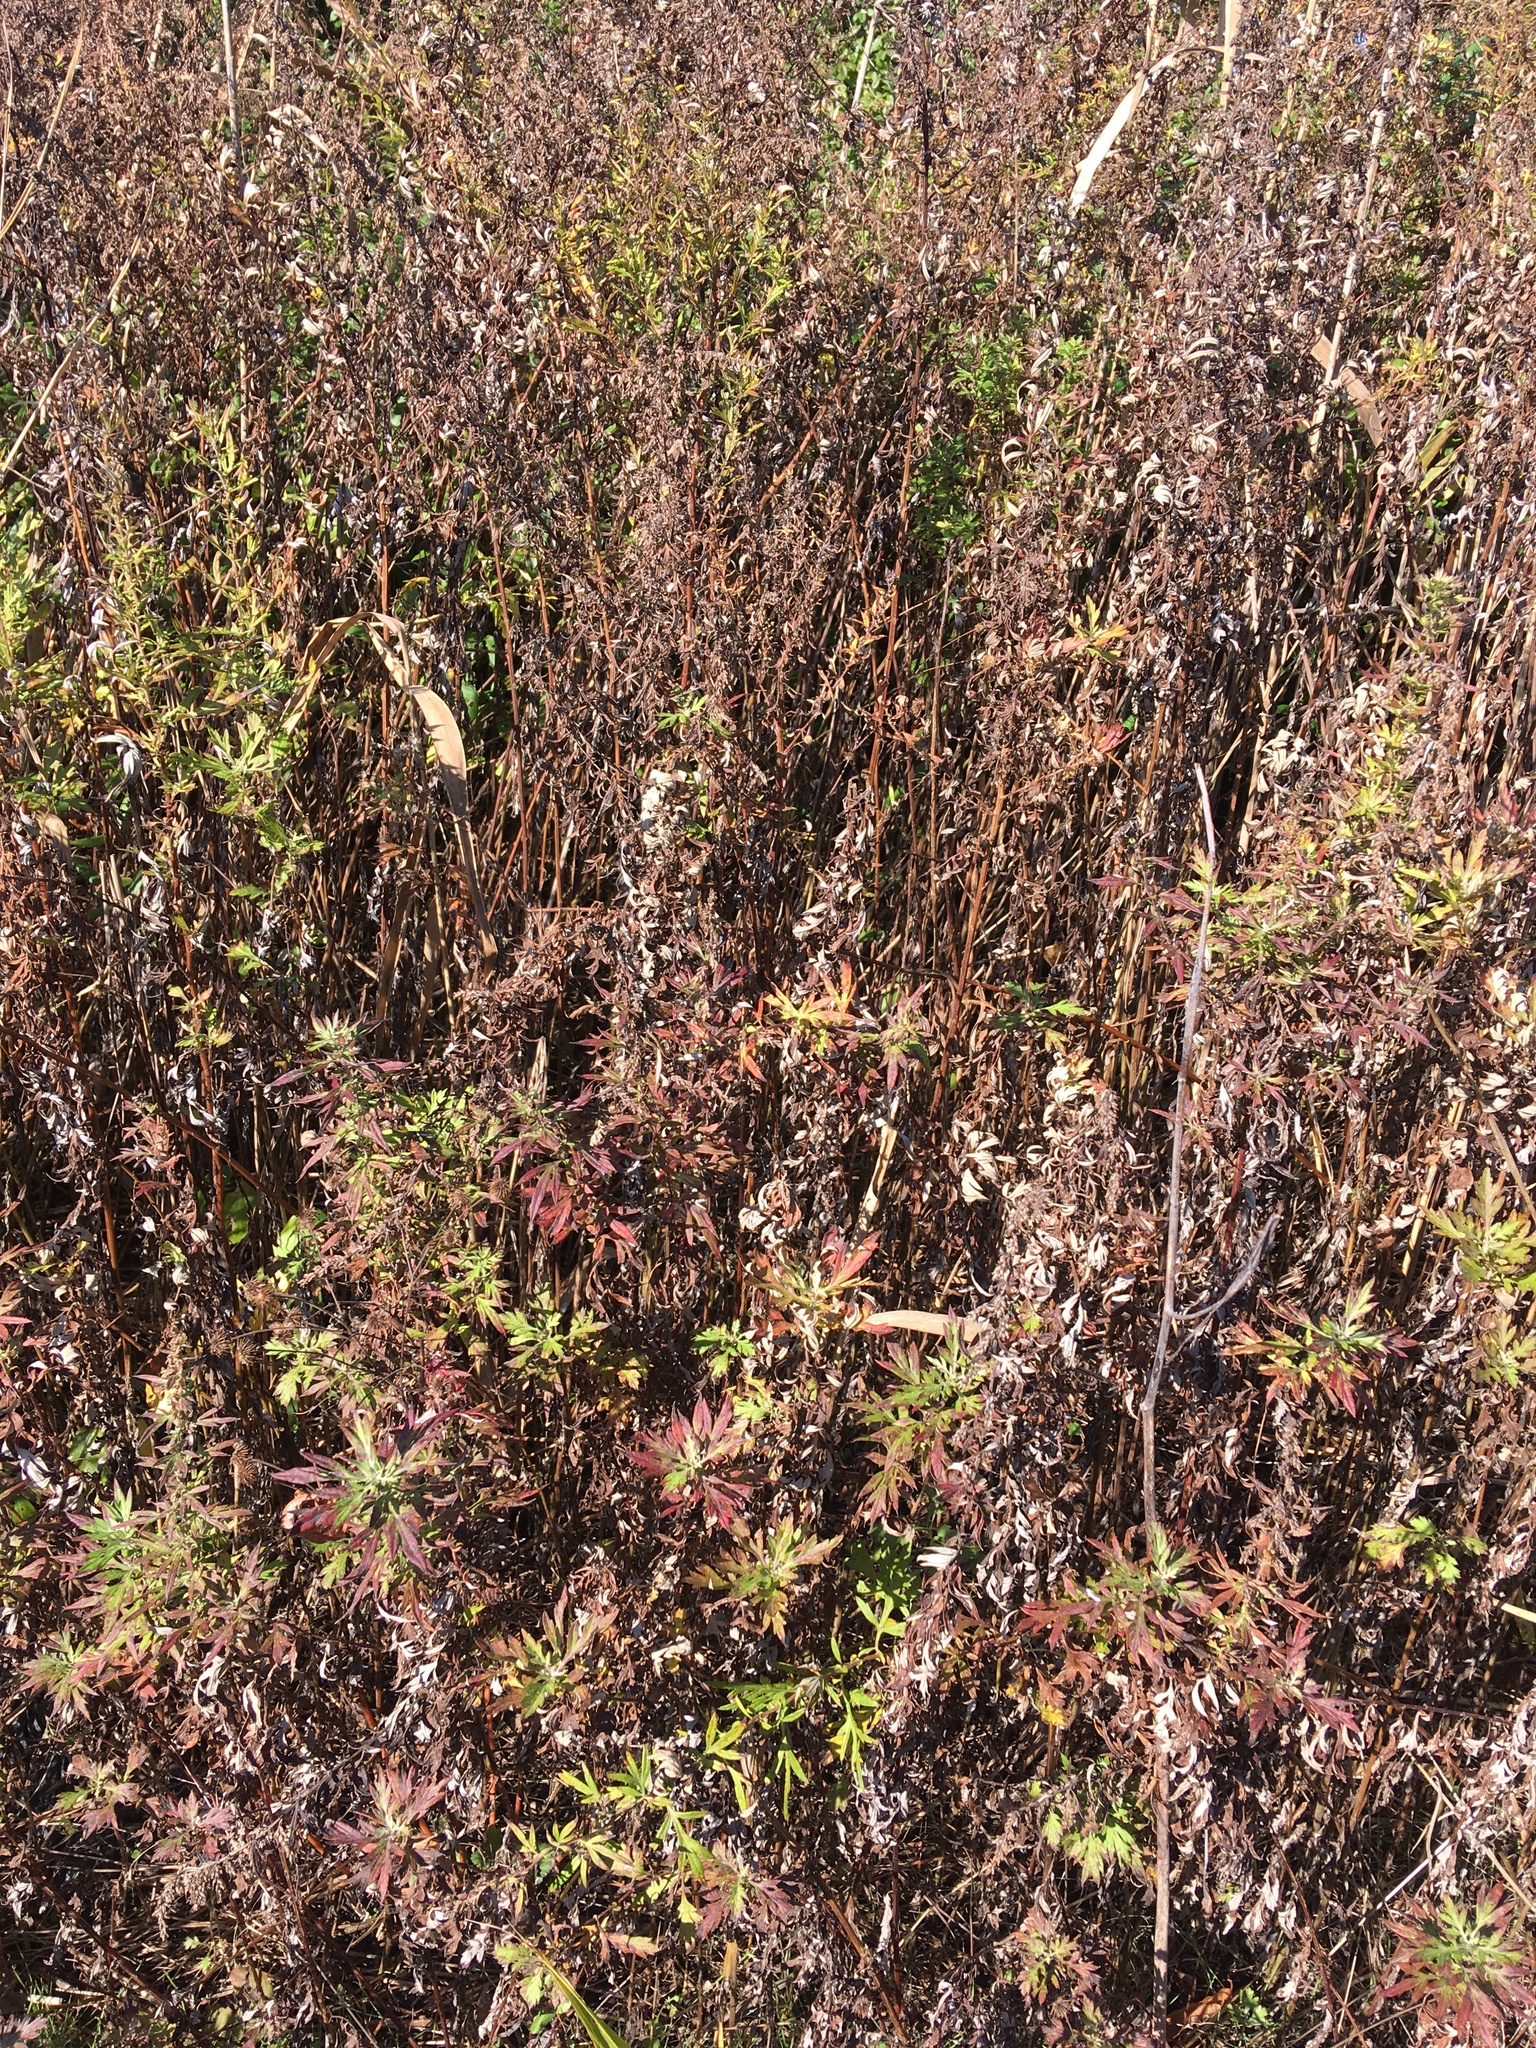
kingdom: Plantae
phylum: Tracheophyta
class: Magnoliopsida
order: Asterales
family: Asteraceae
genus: Artemisia
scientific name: Artemisia vulgaris
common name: Mugwort
